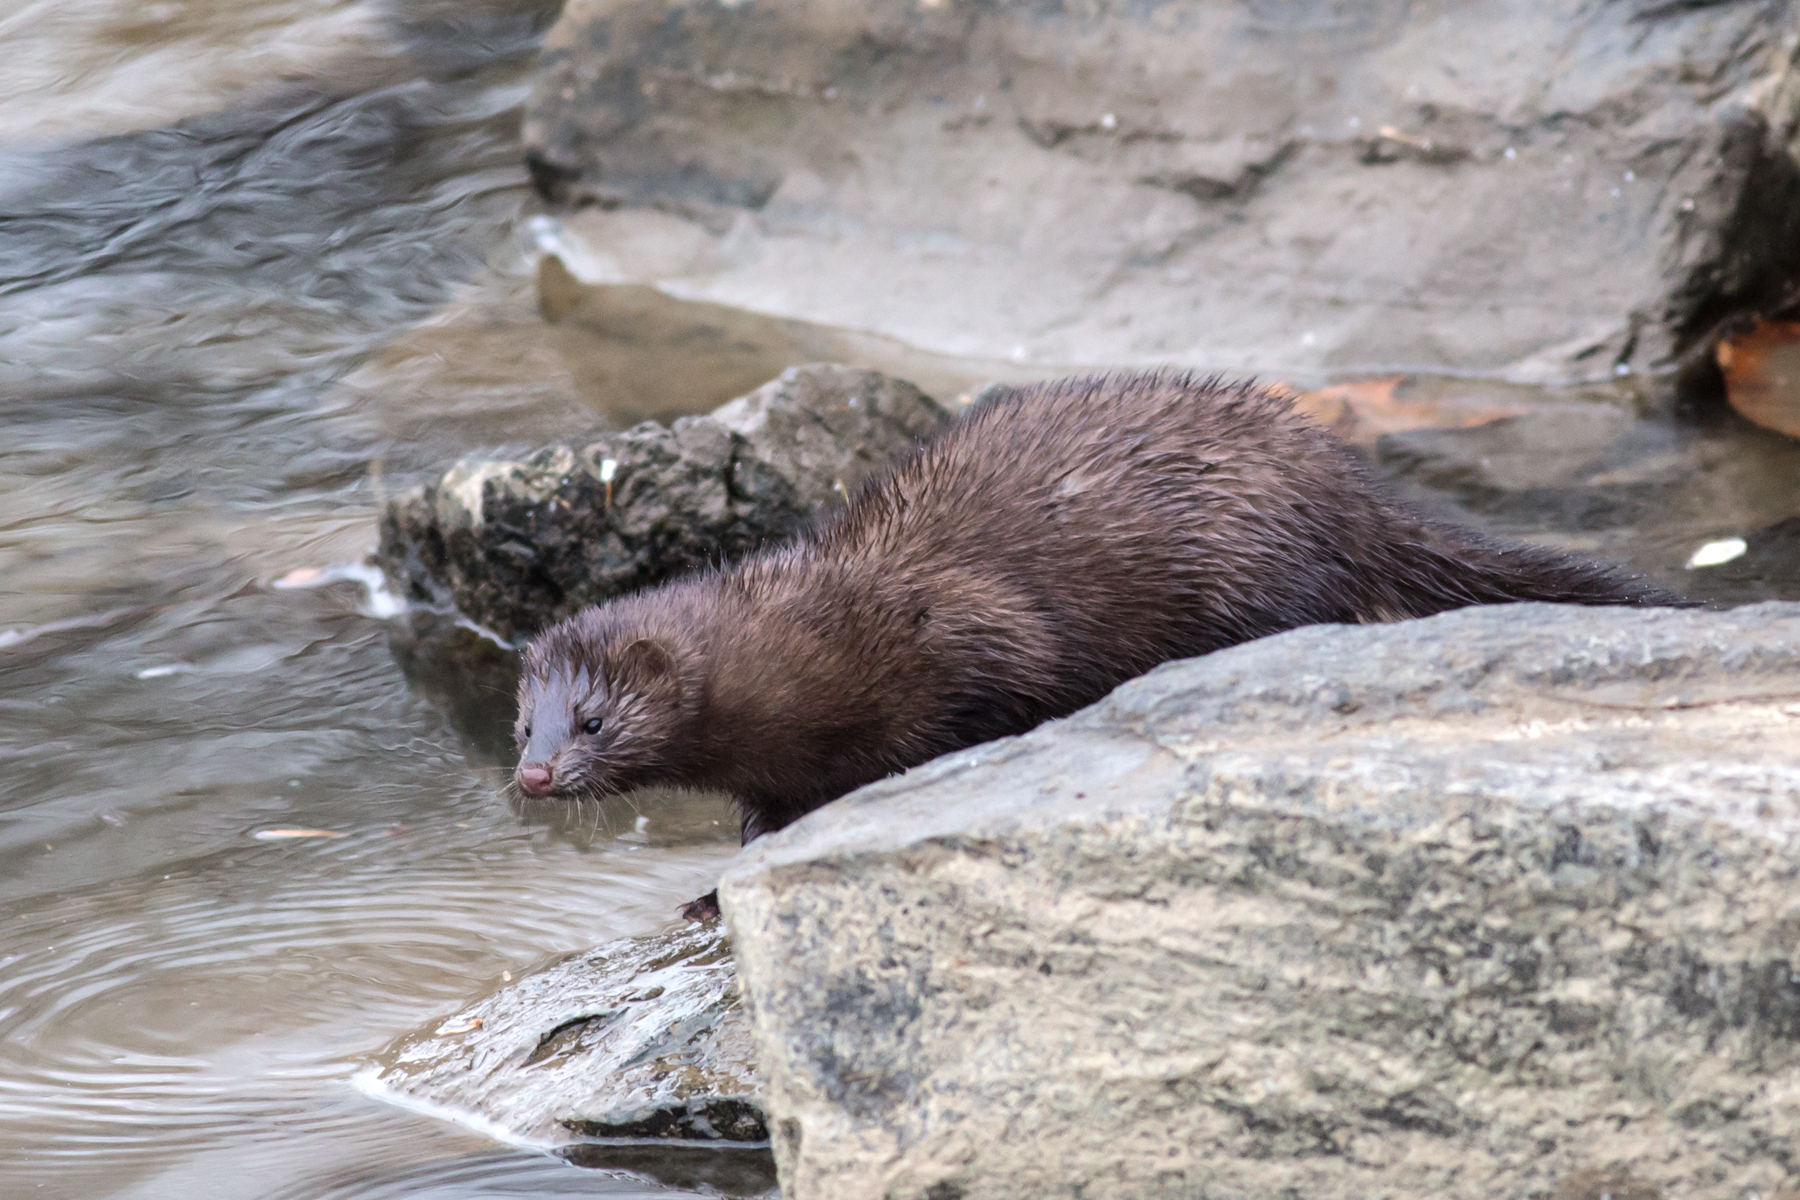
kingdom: Animalia
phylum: Chordata
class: Mammalia
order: Carnivora
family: Mustelidae
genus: Mustela
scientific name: Mustela
